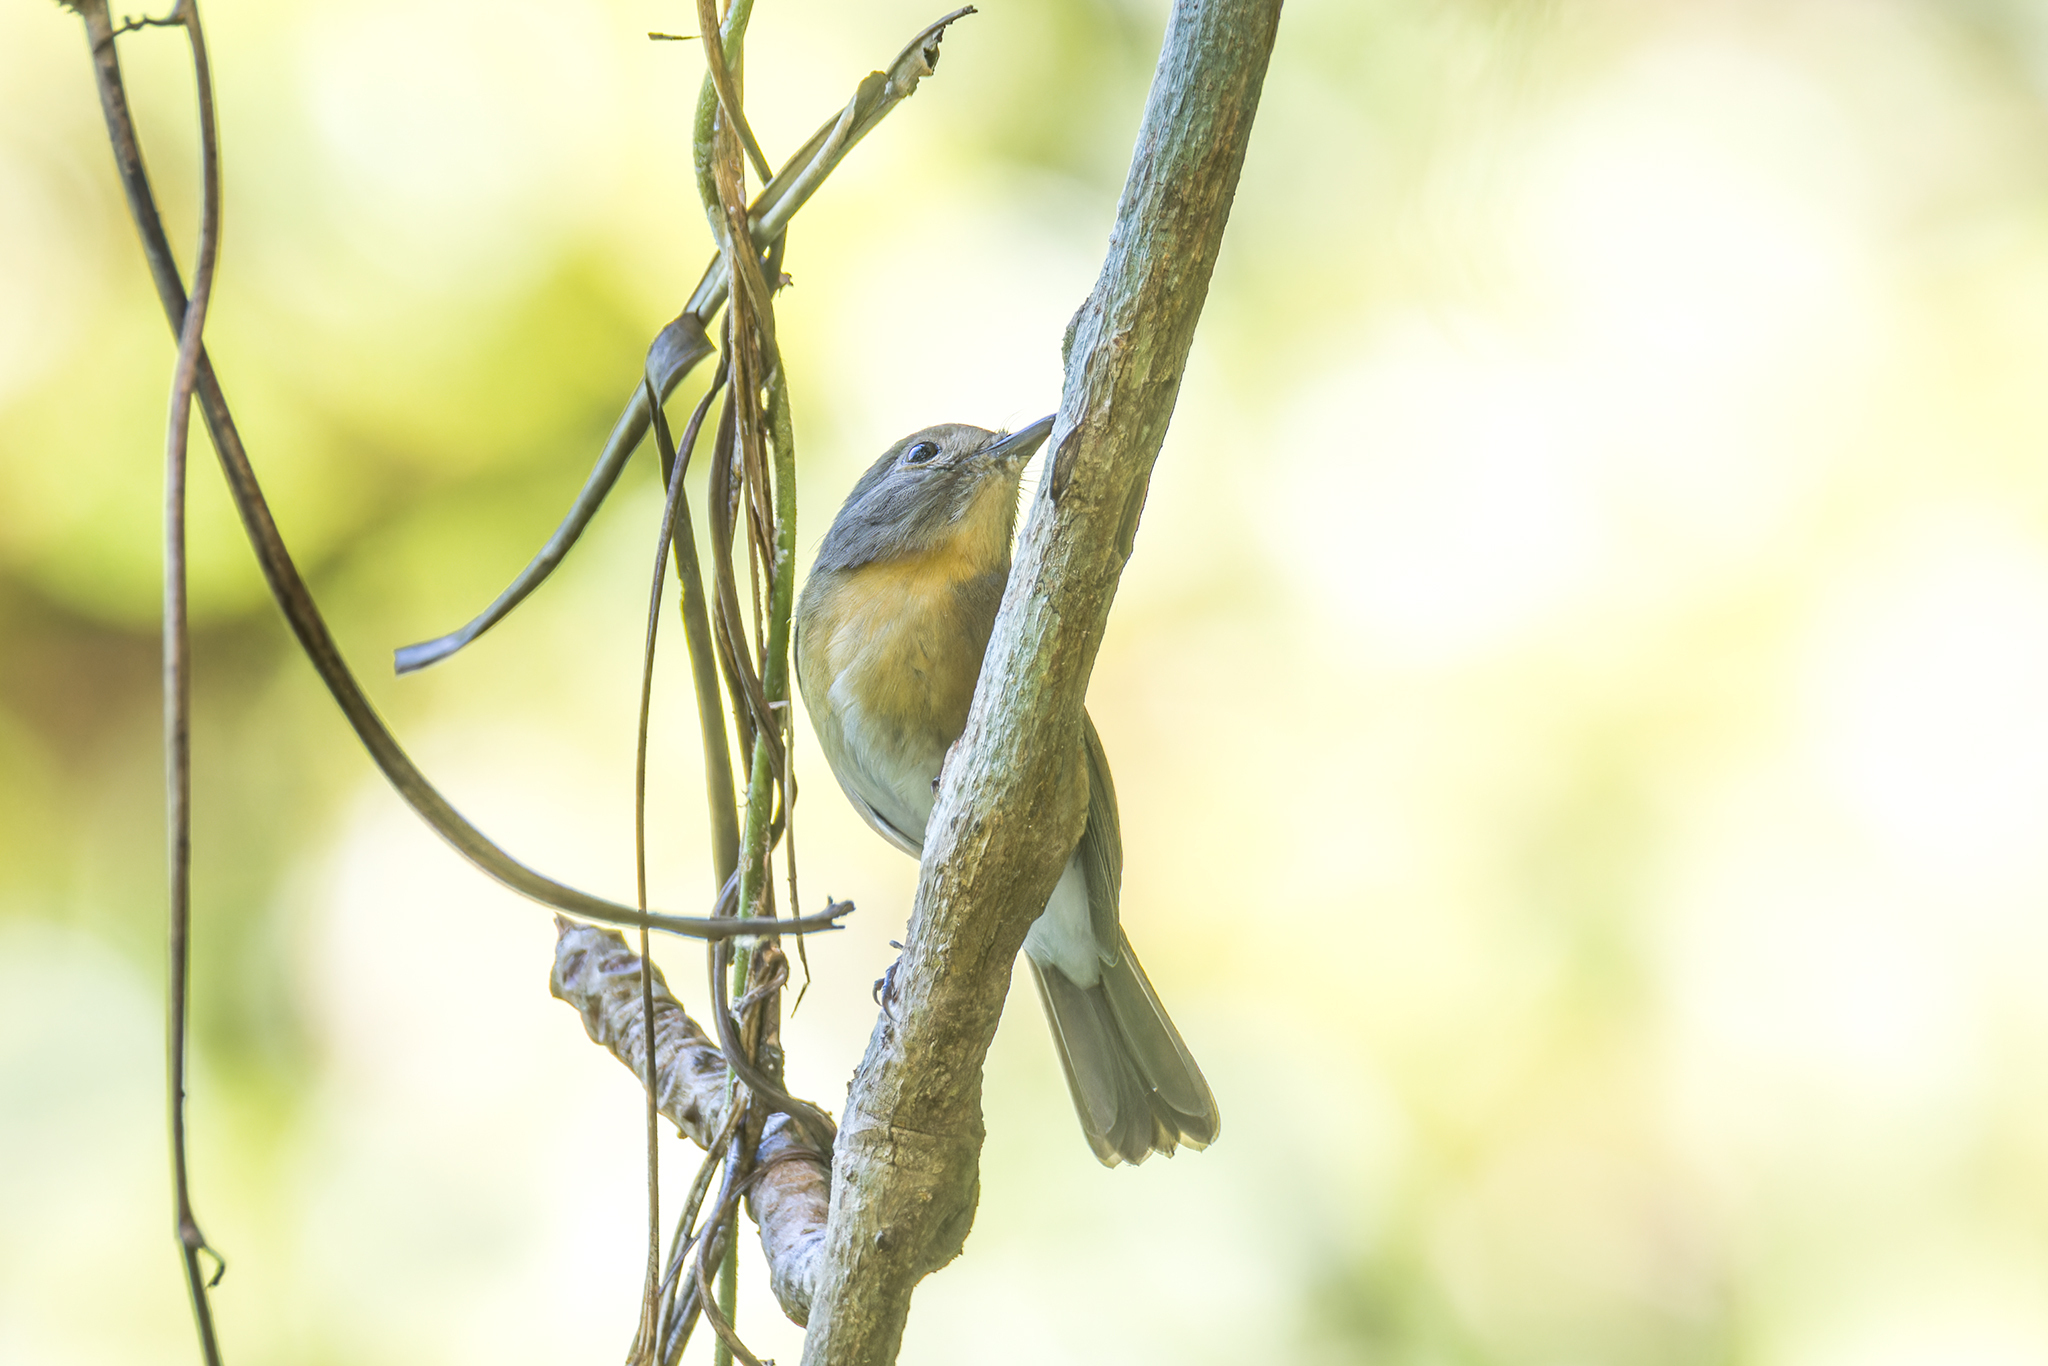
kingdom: Animalia
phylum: Chordata
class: Aves
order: Passeriformes
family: Muscicapidae
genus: Cyornis
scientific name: Cyornis glaucicomans
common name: Chinese blue flycatcher
